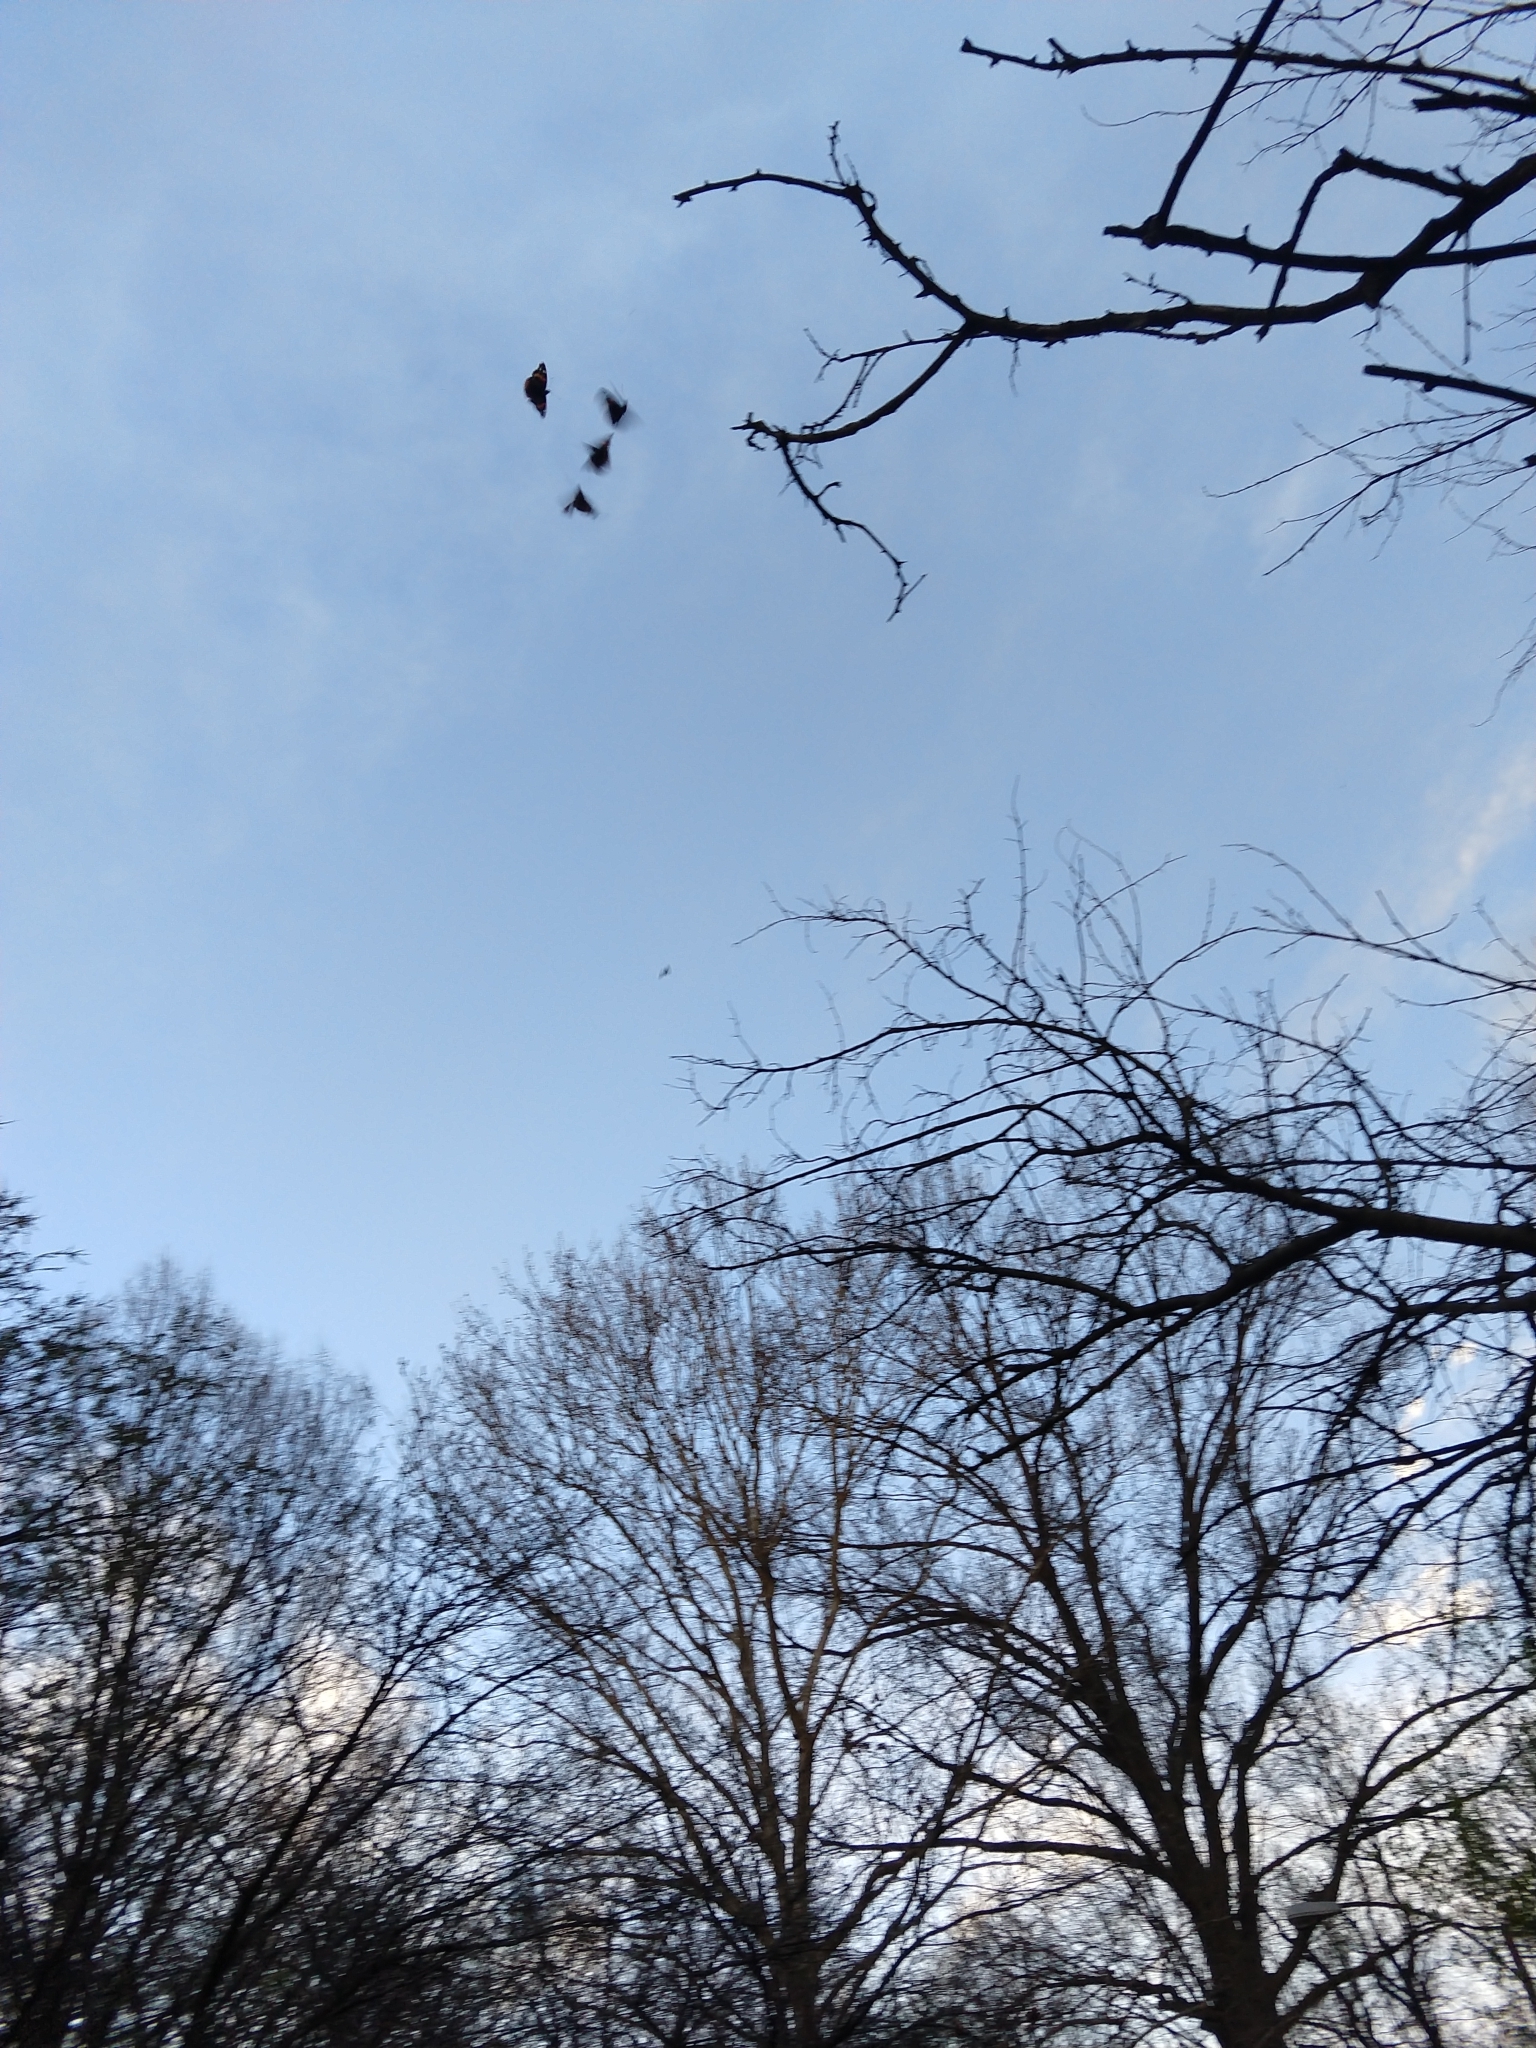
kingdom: Animalia
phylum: Arthropoda
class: Insecta
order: Lepidoptera
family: Nymphalidae
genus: Vanessa
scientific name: Vanessa atalanta
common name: Red admiral
